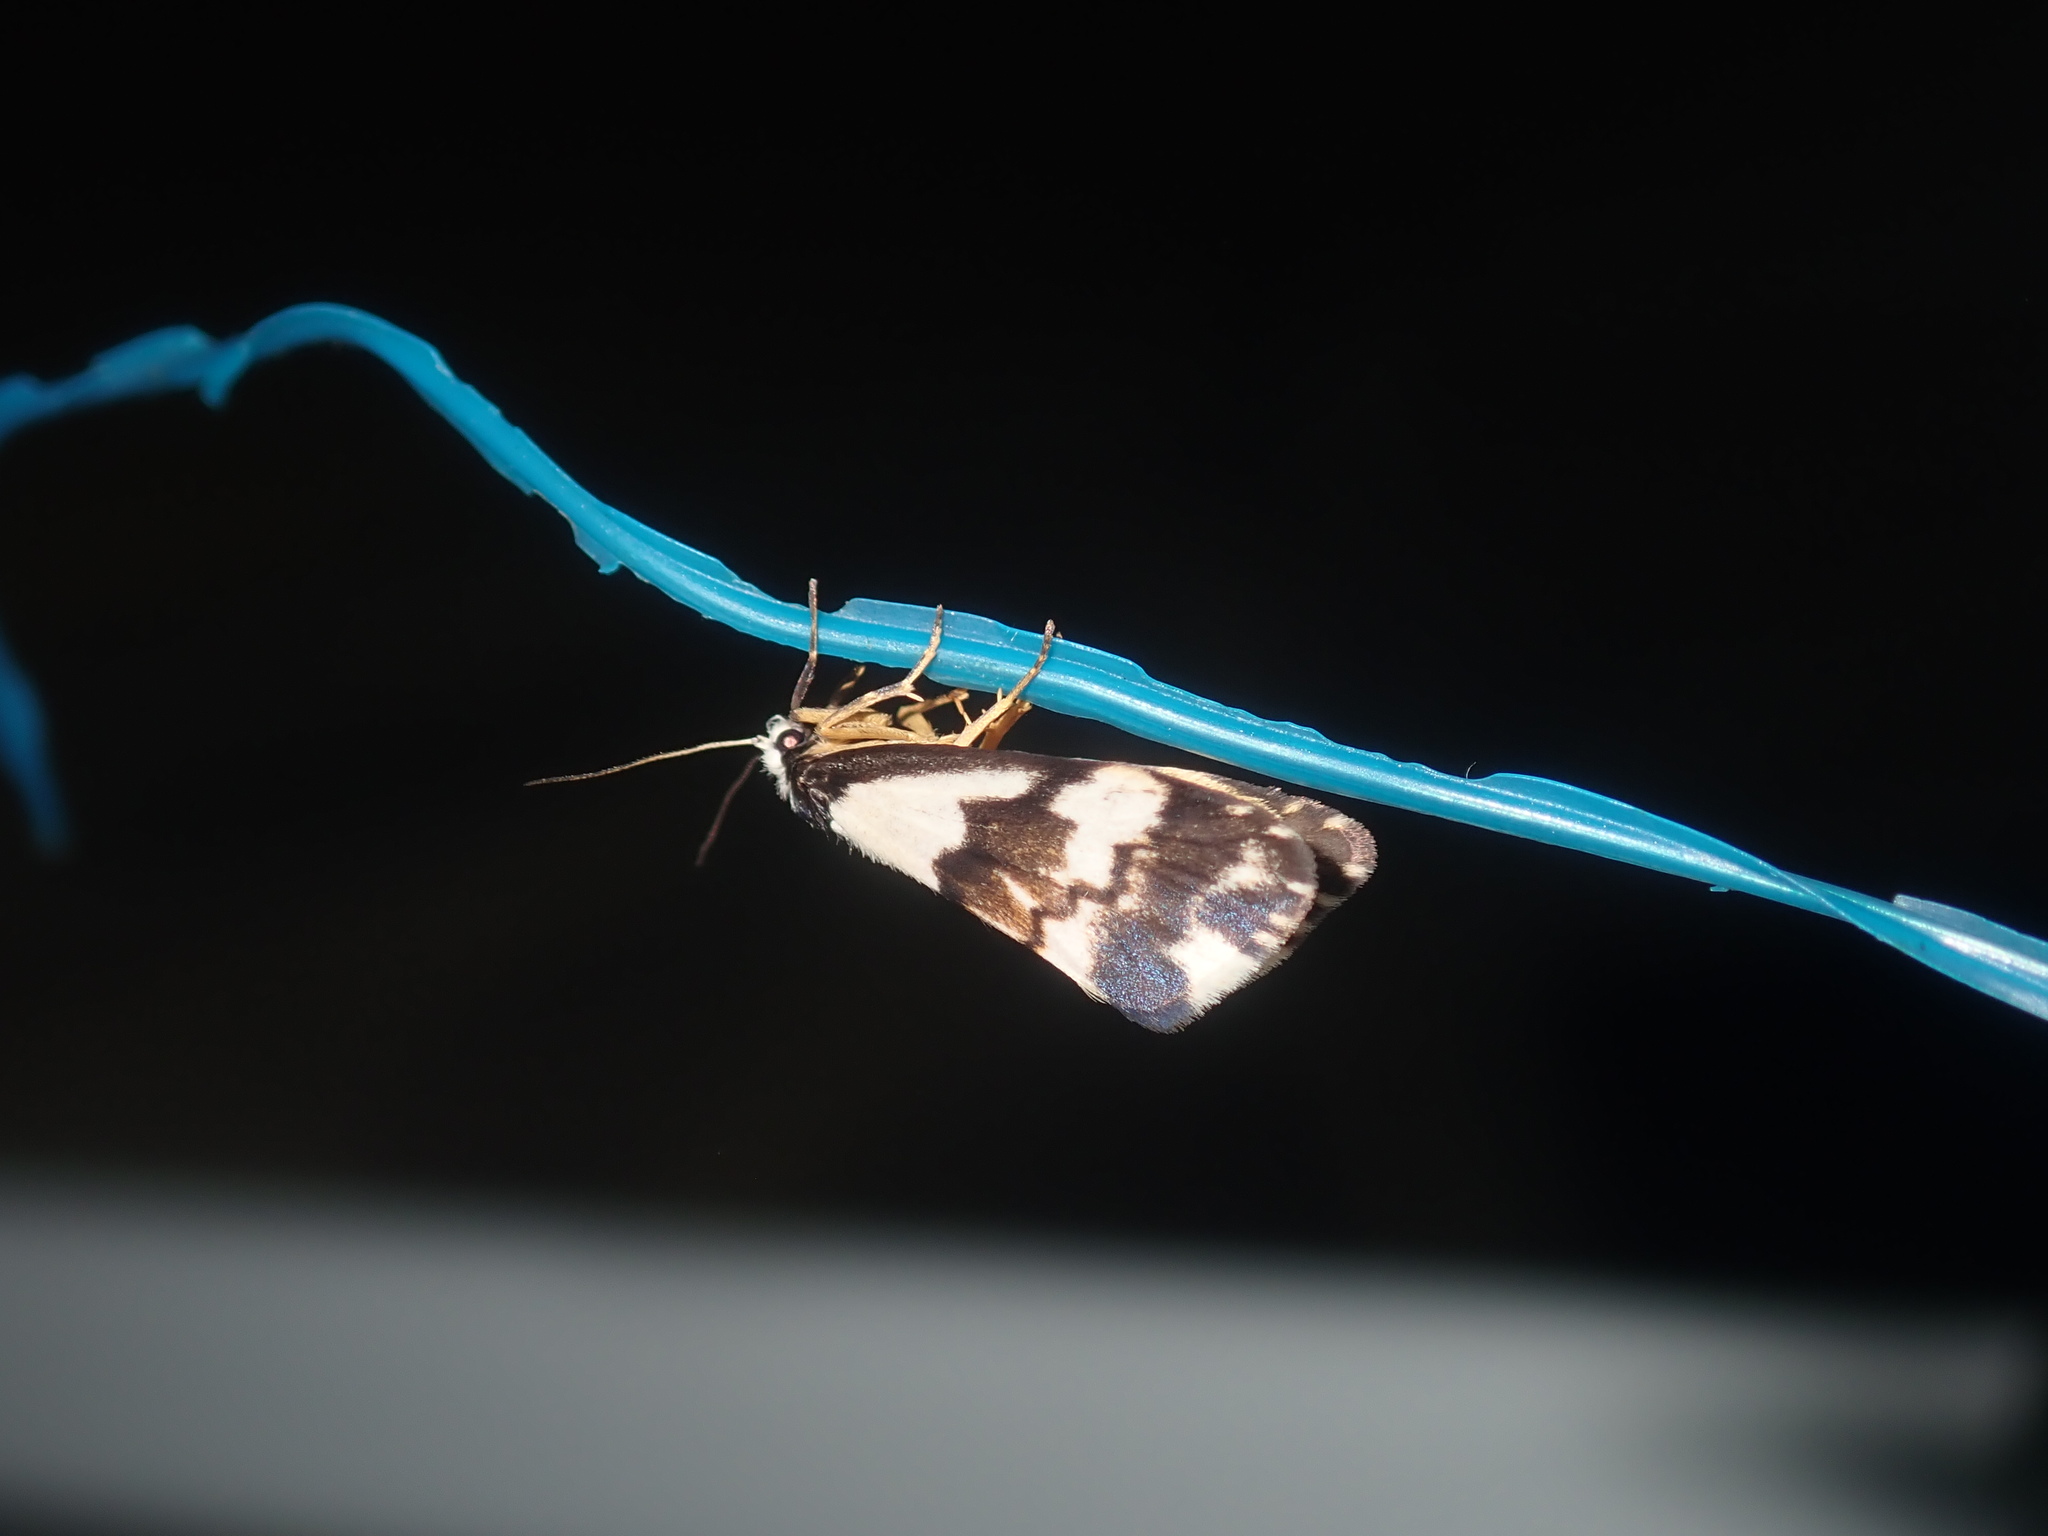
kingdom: Animalia
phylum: Arthropoda
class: Insecta
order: Lepidoptera
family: Erebidae
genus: Philenora
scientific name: Philenora irregularis
